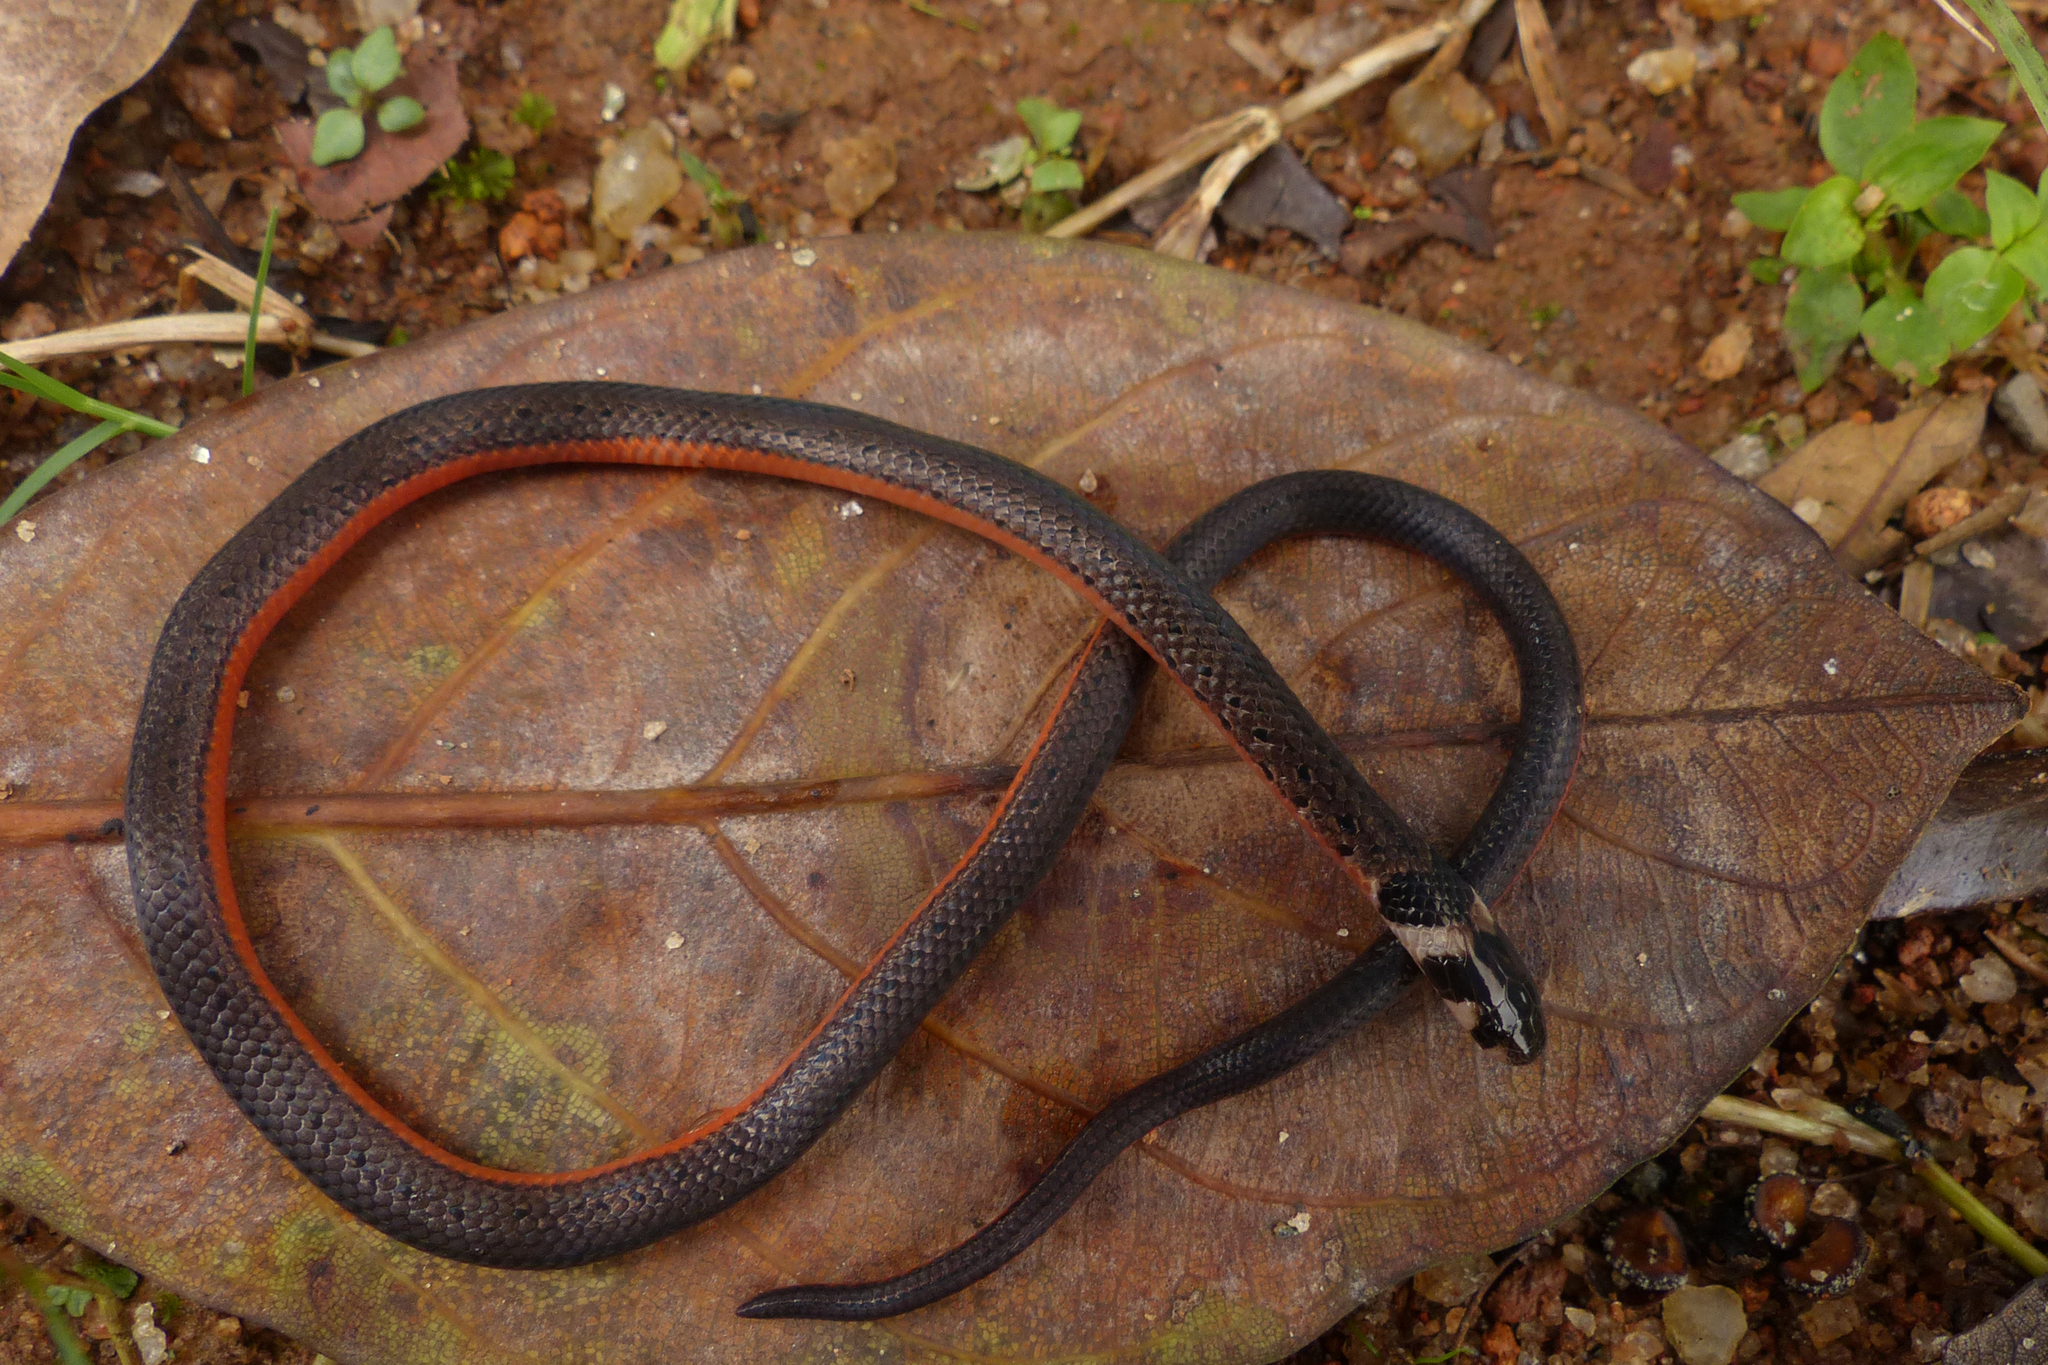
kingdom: Animalia
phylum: Chordata
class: Squamata
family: Elapidae
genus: Calliophis
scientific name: Calliophis nigrescens
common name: Black coral snake
